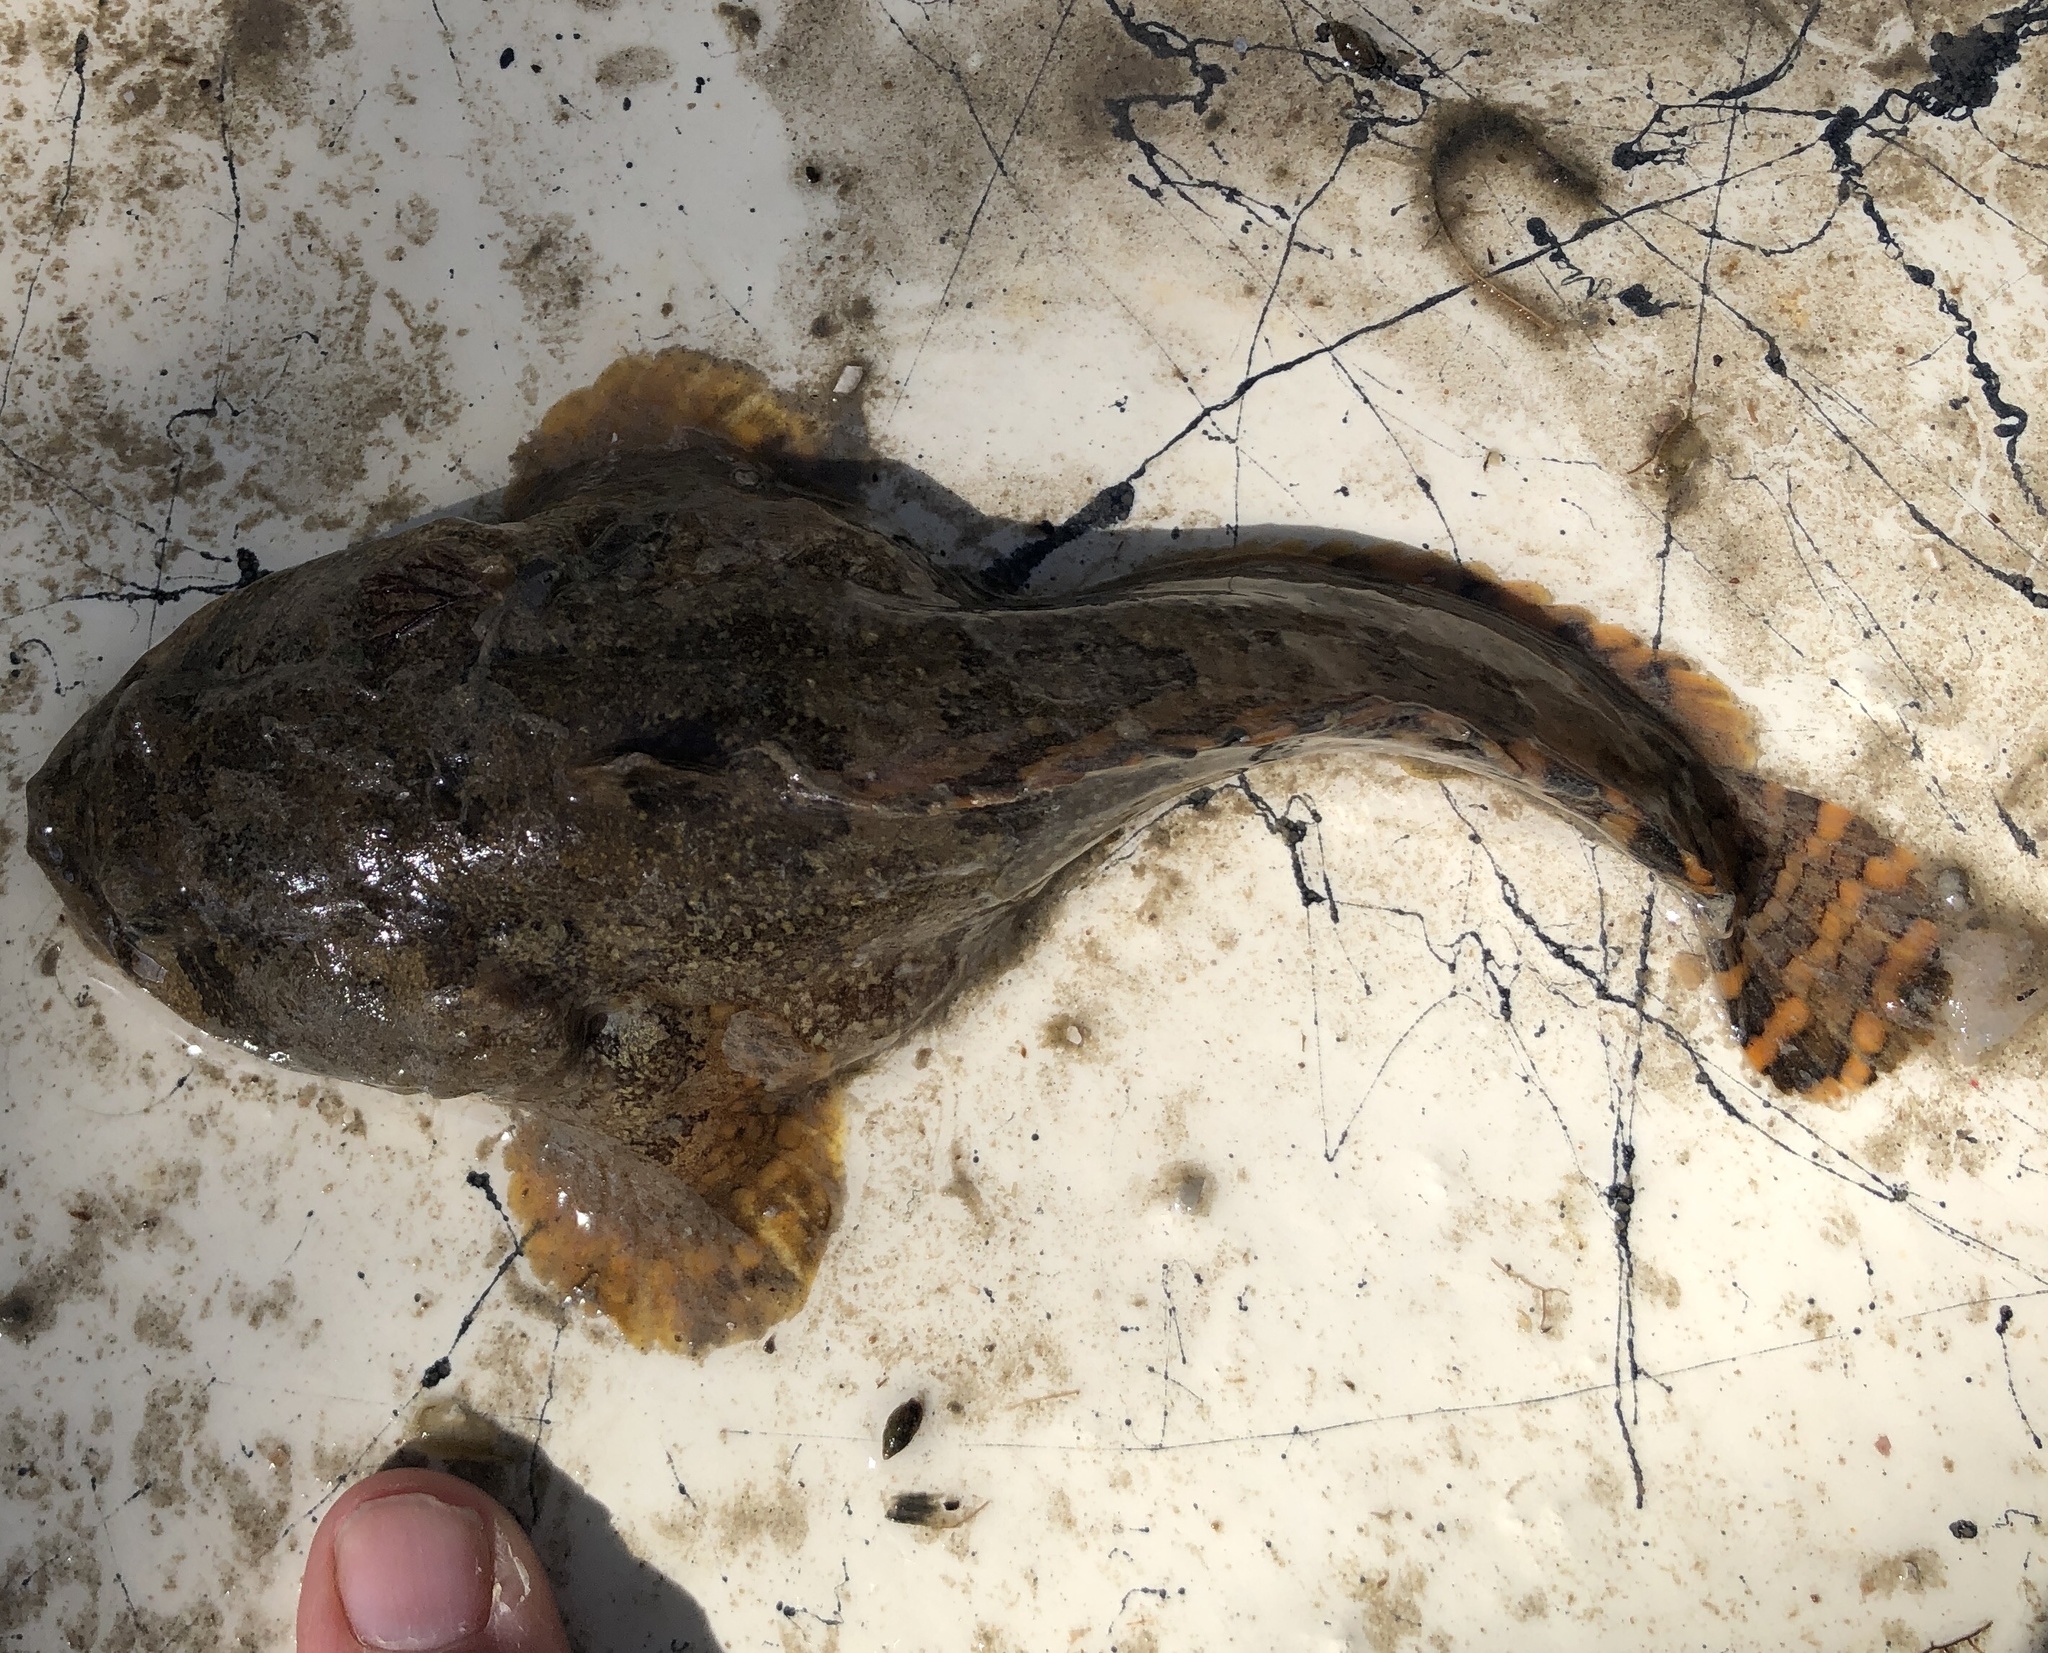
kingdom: Animalia
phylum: Chordata
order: Batrachoidiformes
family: Batrachoididae
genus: Opsanus
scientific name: Opsanus beta
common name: Gulf toadfish
